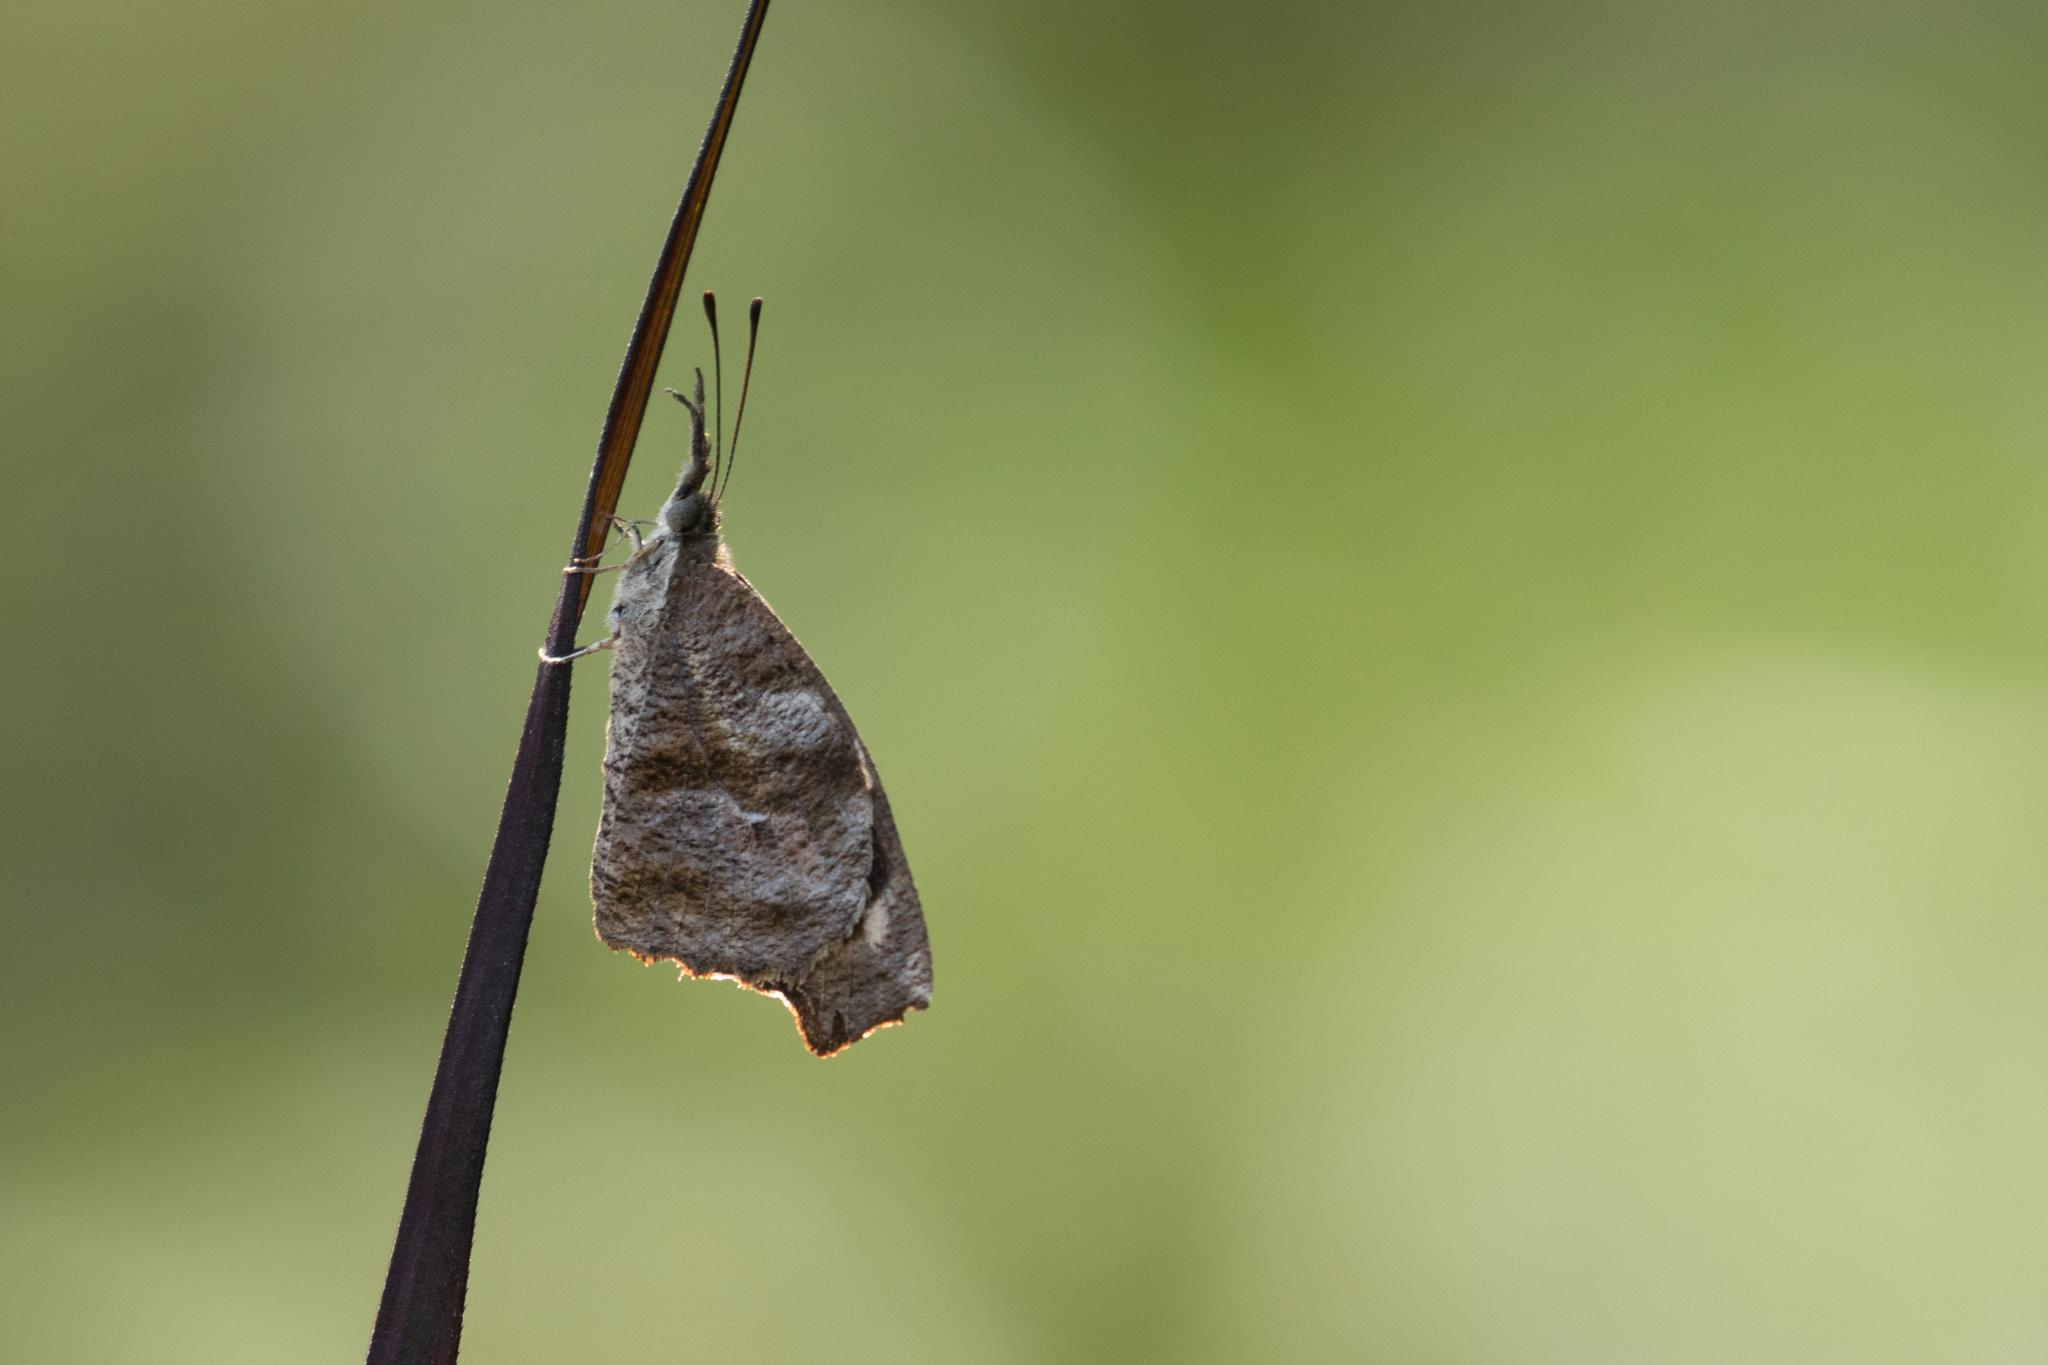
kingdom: Animalia
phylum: Arthropoda
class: Insecta
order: Lepidoptera
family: Nymphalidae
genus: Libytheana
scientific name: Libytheana carinenta
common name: American snout
